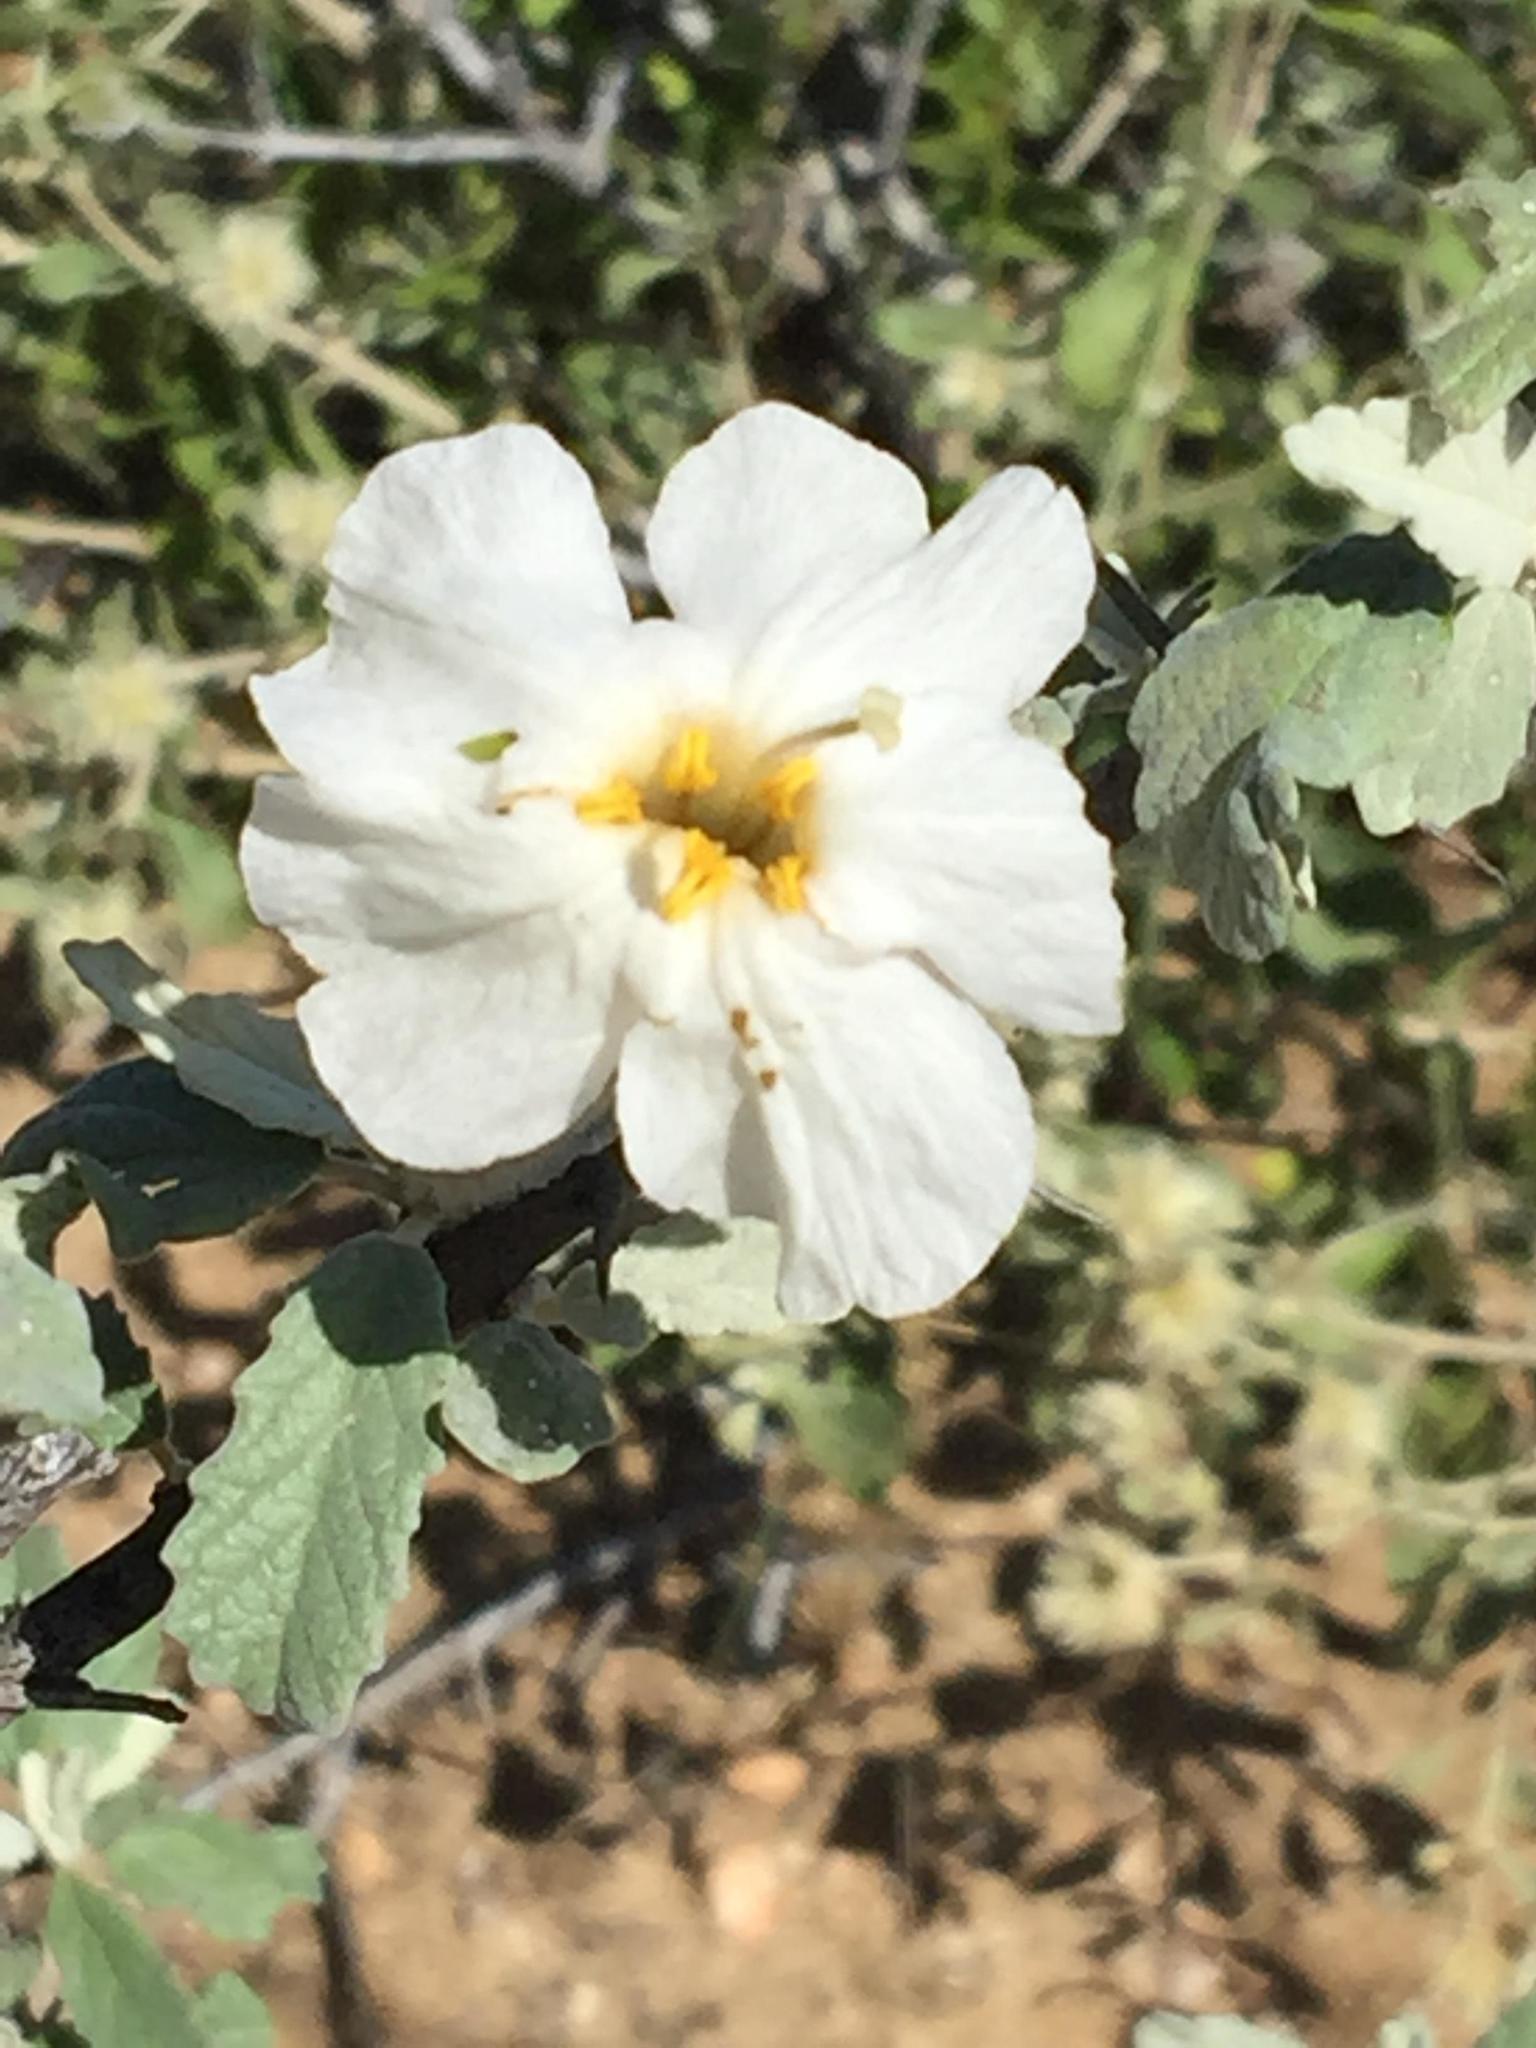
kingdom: Plantae
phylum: Tracheophyta
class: Magnoliopsida
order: Lamiales
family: Bignoniaceae
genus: Catophractes
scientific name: Catophractes alexandri
